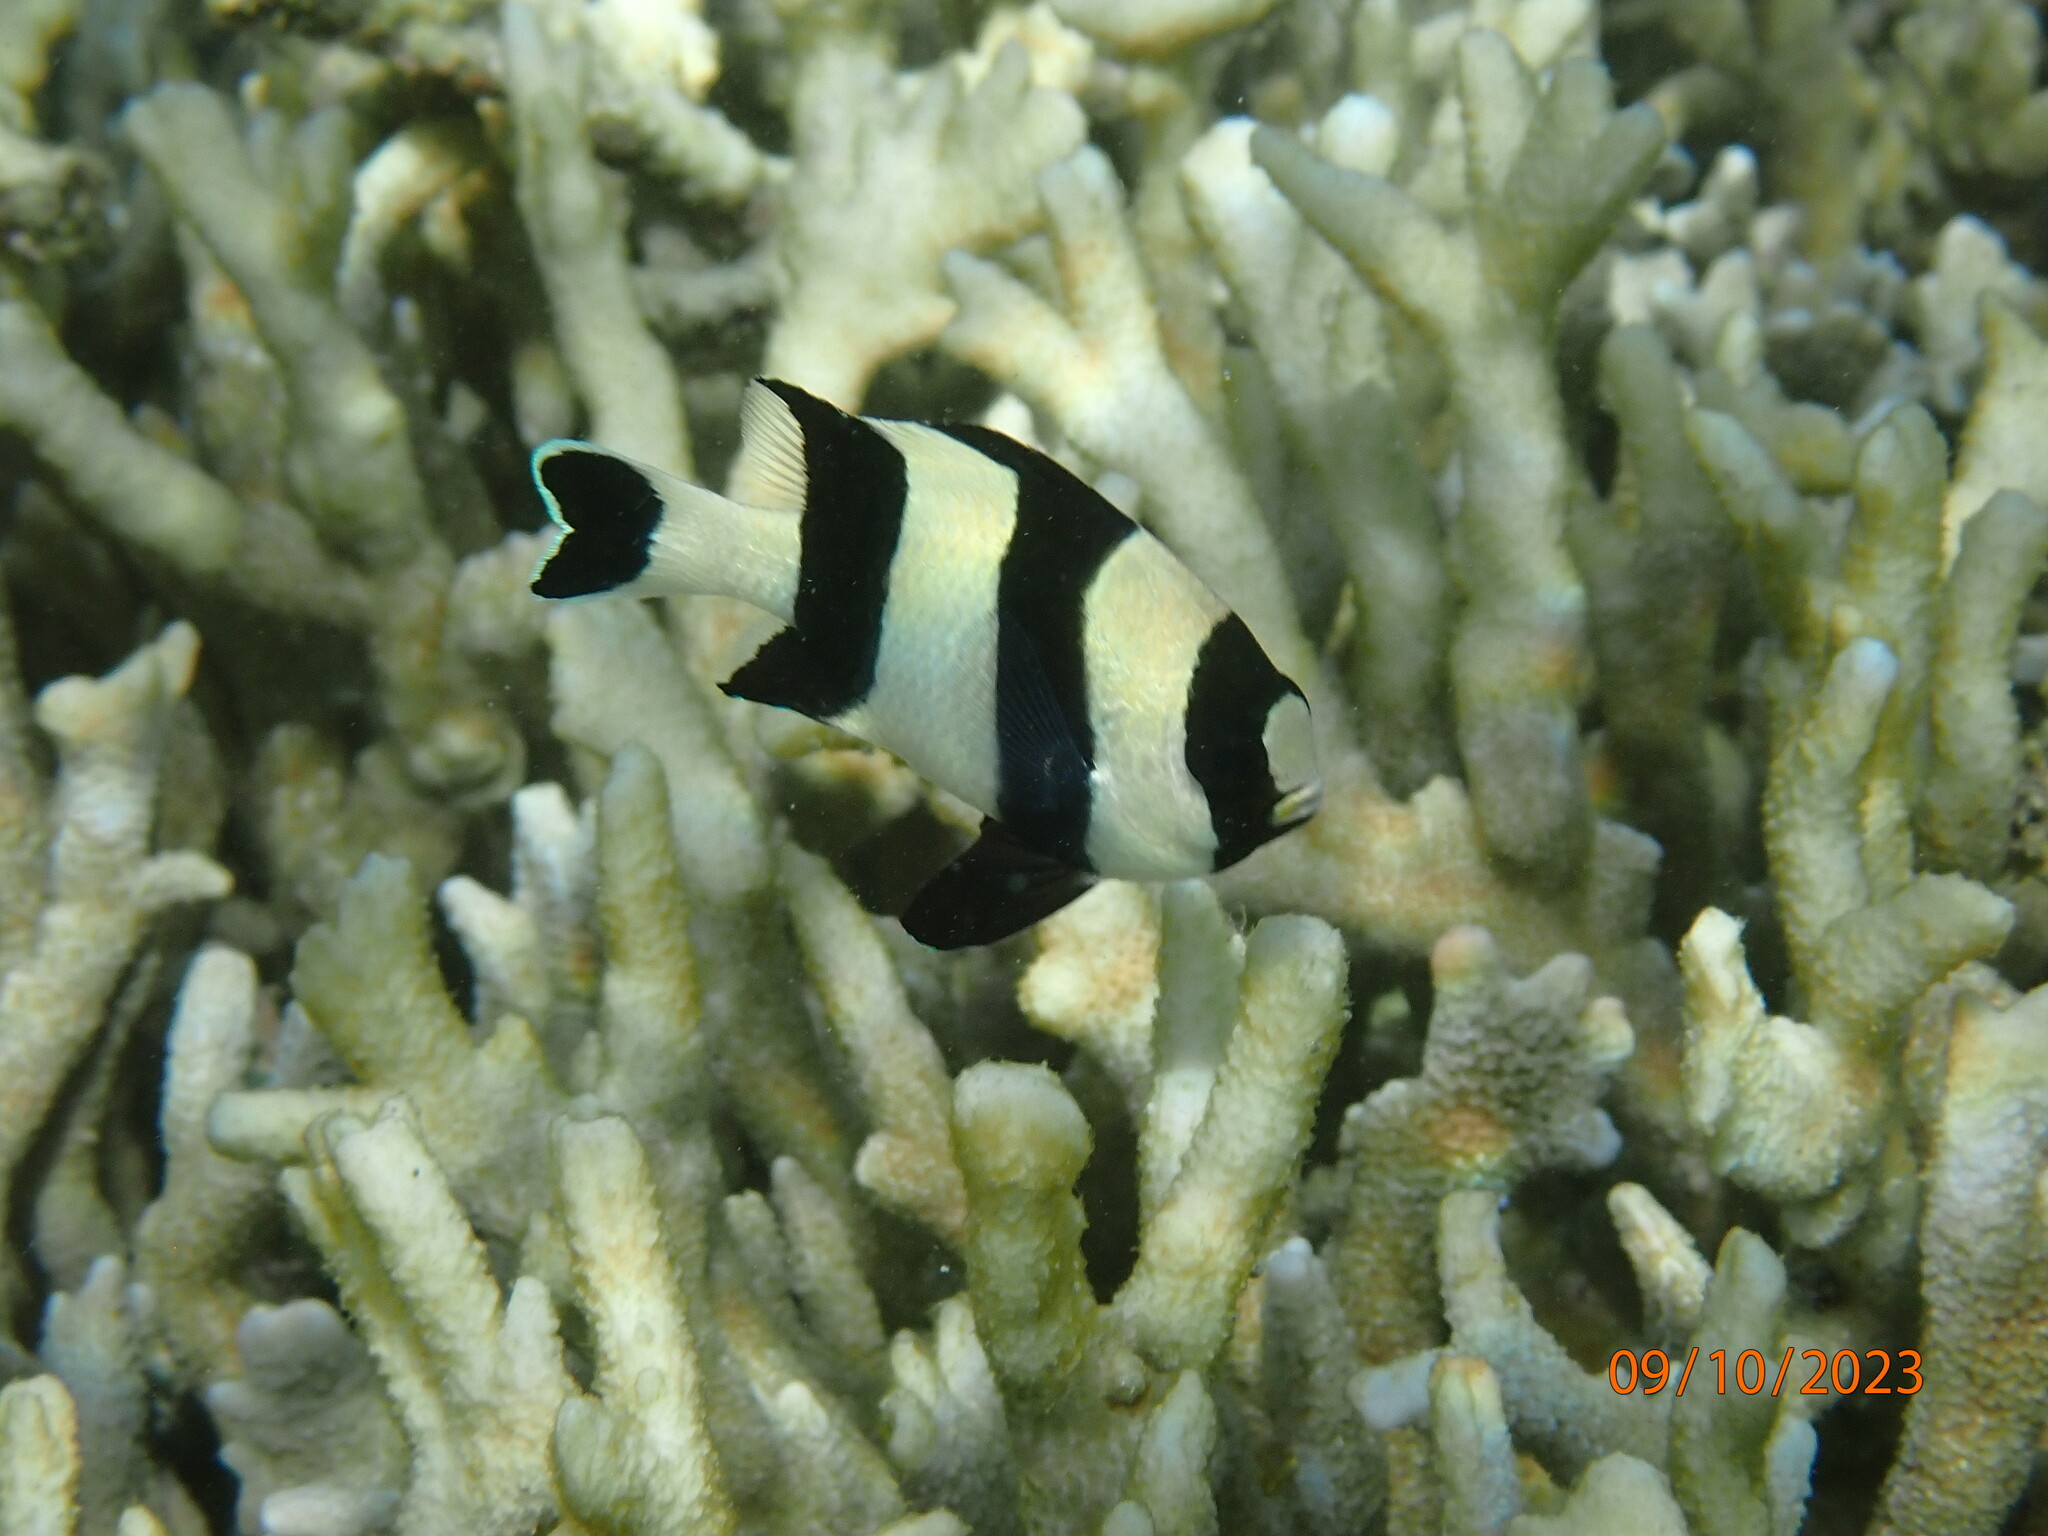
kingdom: Animalia
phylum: Chordata
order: Perciformes
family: Pomacentridae
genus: Dascyllus
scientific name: Dascyllus melanurus
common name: Black-tail dascyllus
